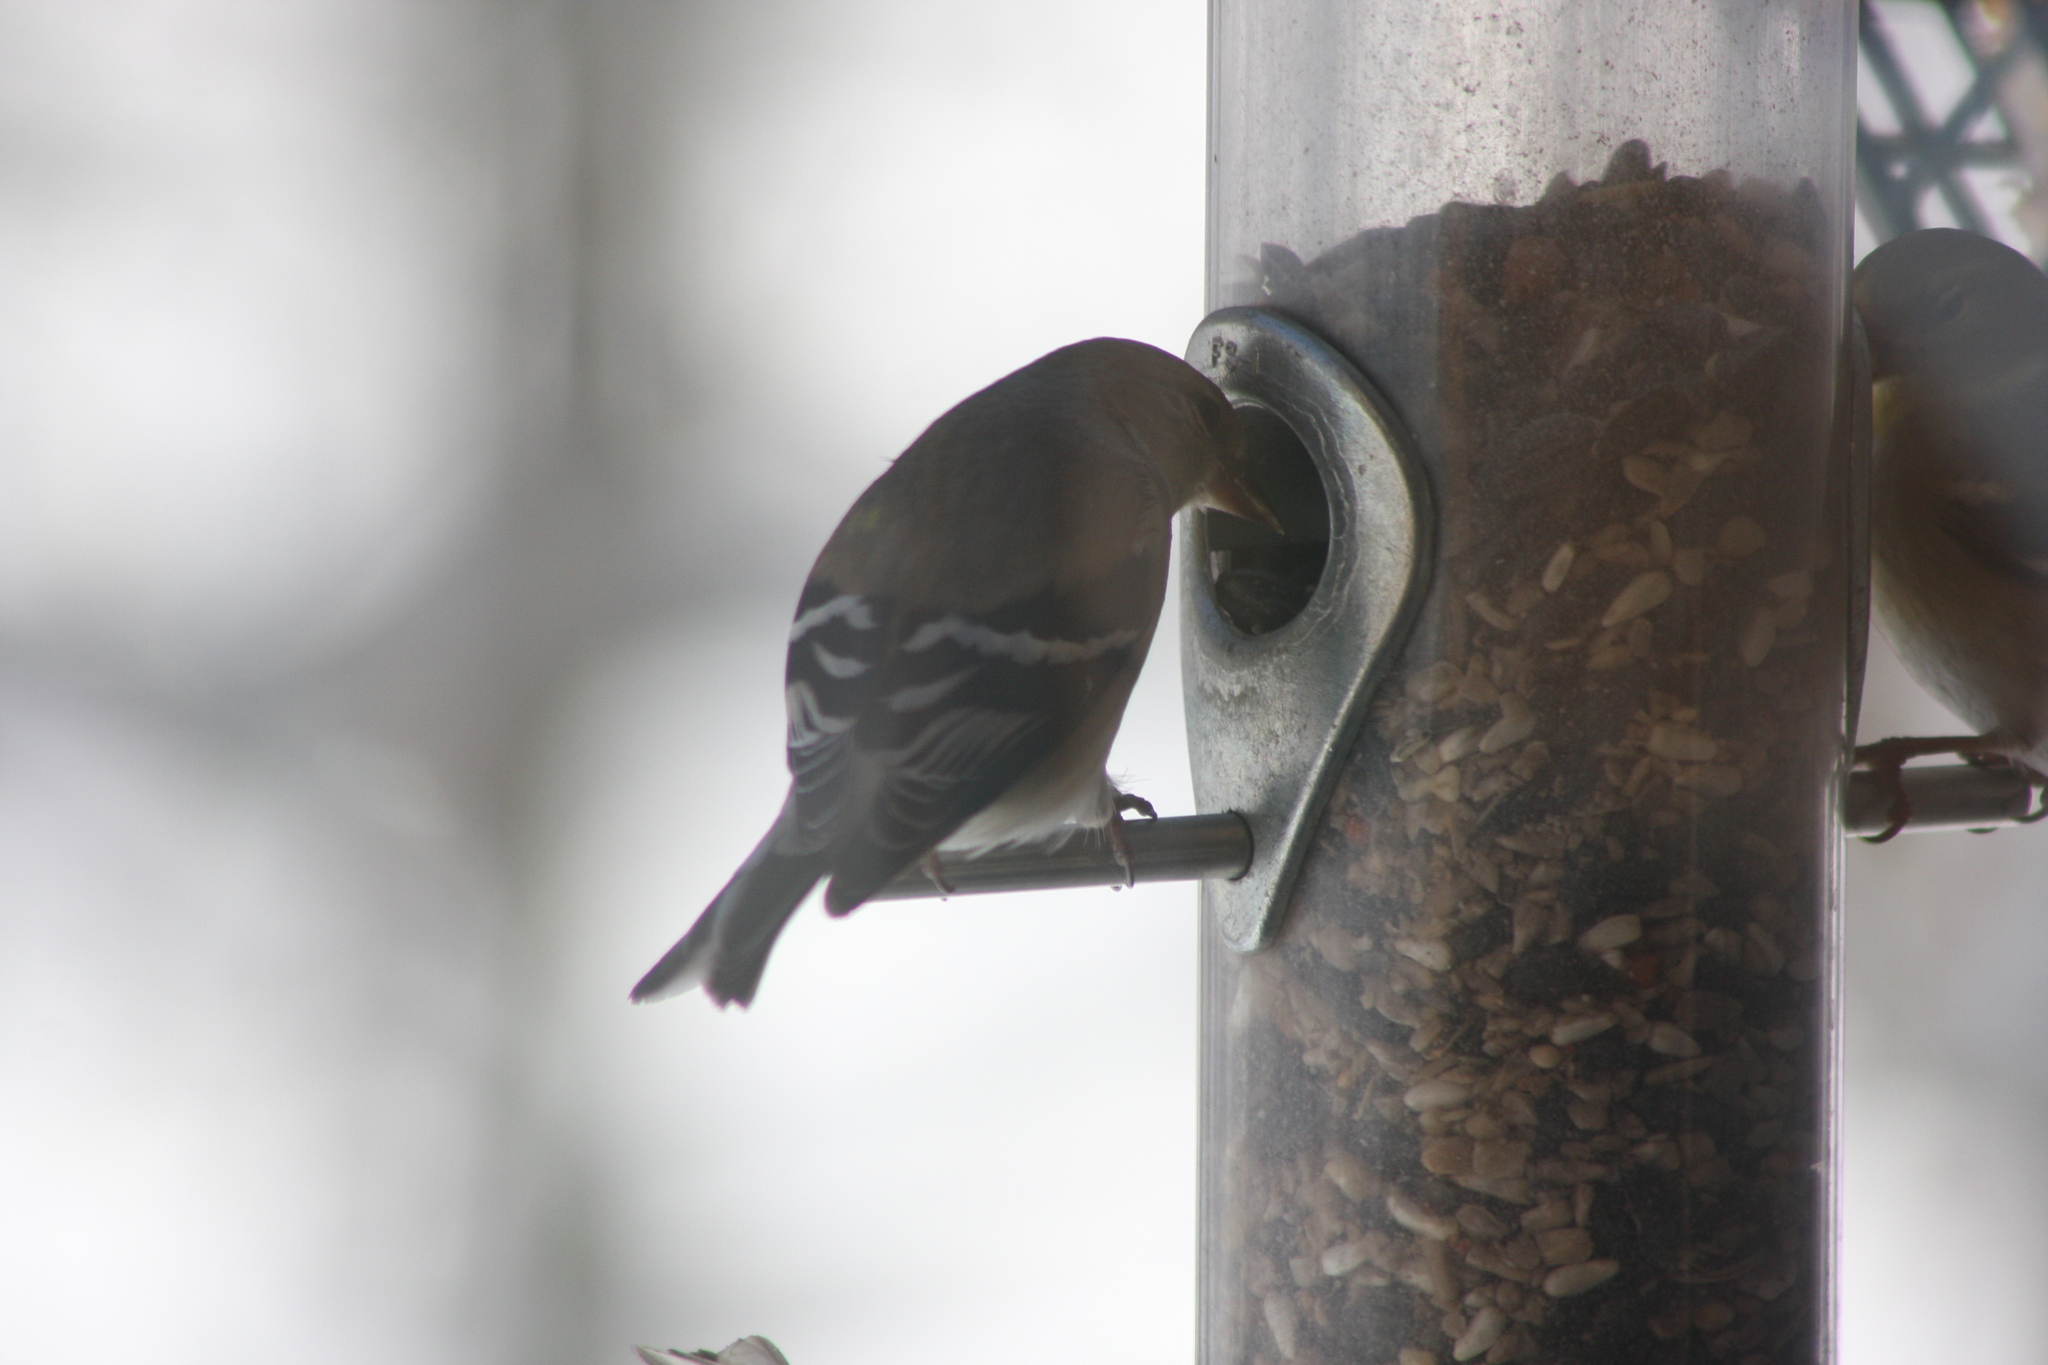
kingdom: Animalia
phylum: Chordata
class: Aves
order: Passeriformes
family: Fringillidae
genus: Spinus
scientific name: Spinus tristis
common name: American goldfinch
